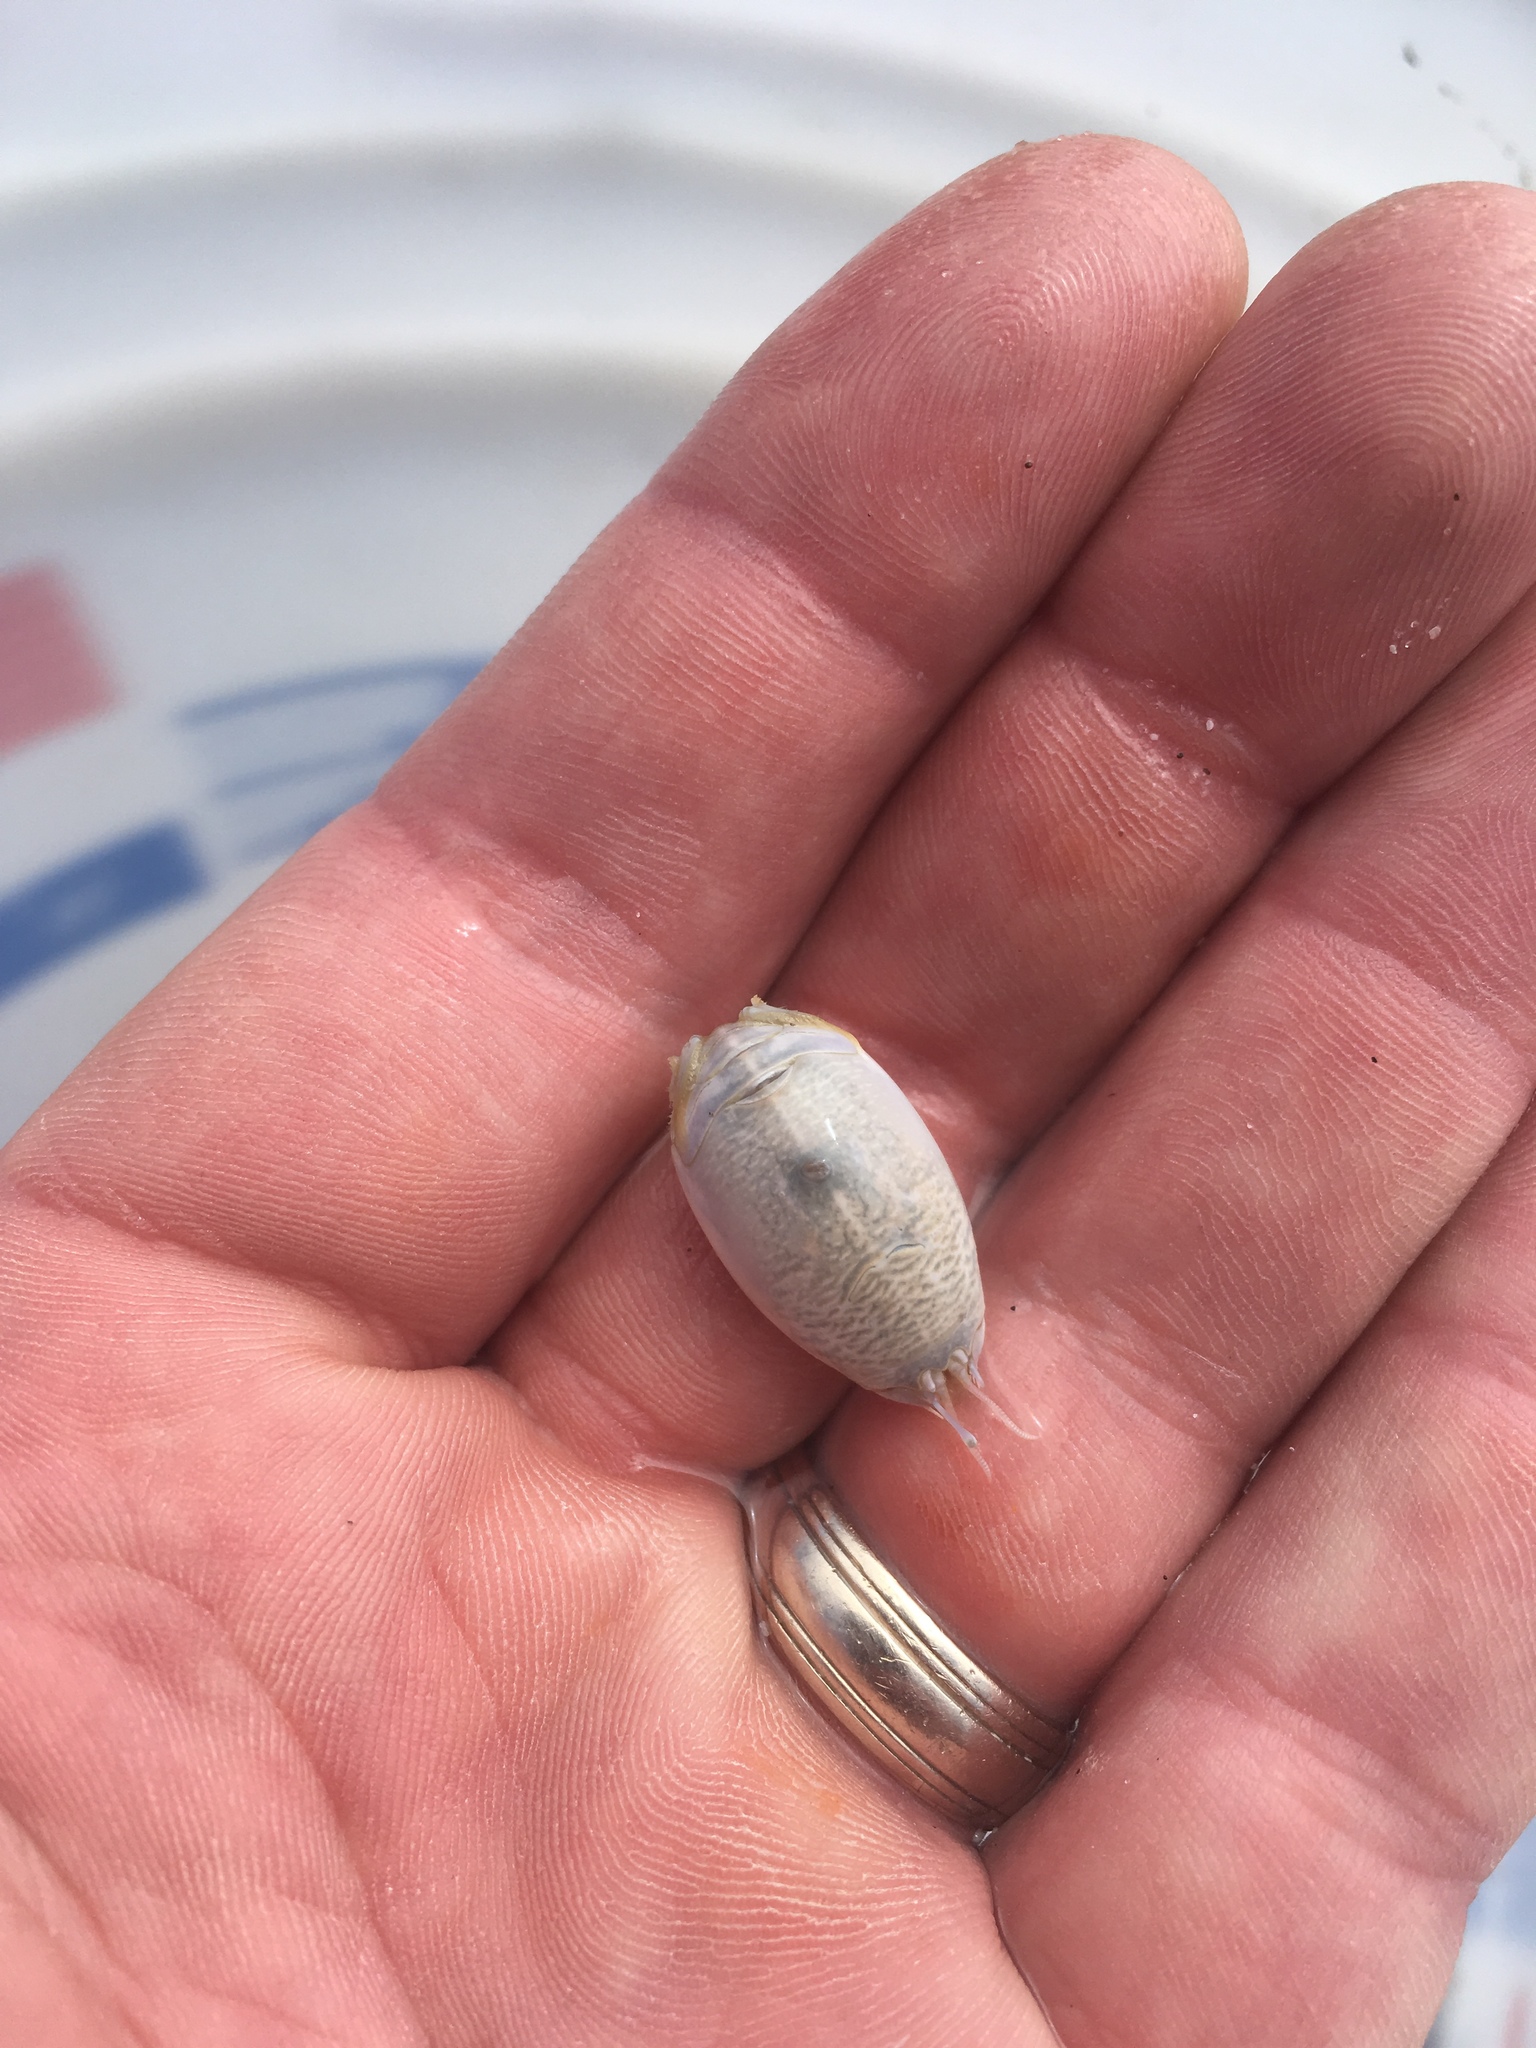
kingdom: Animalia
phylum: Arthropoda
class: Malacostraca
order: Decapoda
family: Hippidae
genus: Emerita
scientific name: Emerita talpoida
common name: Atlantic sand crab
